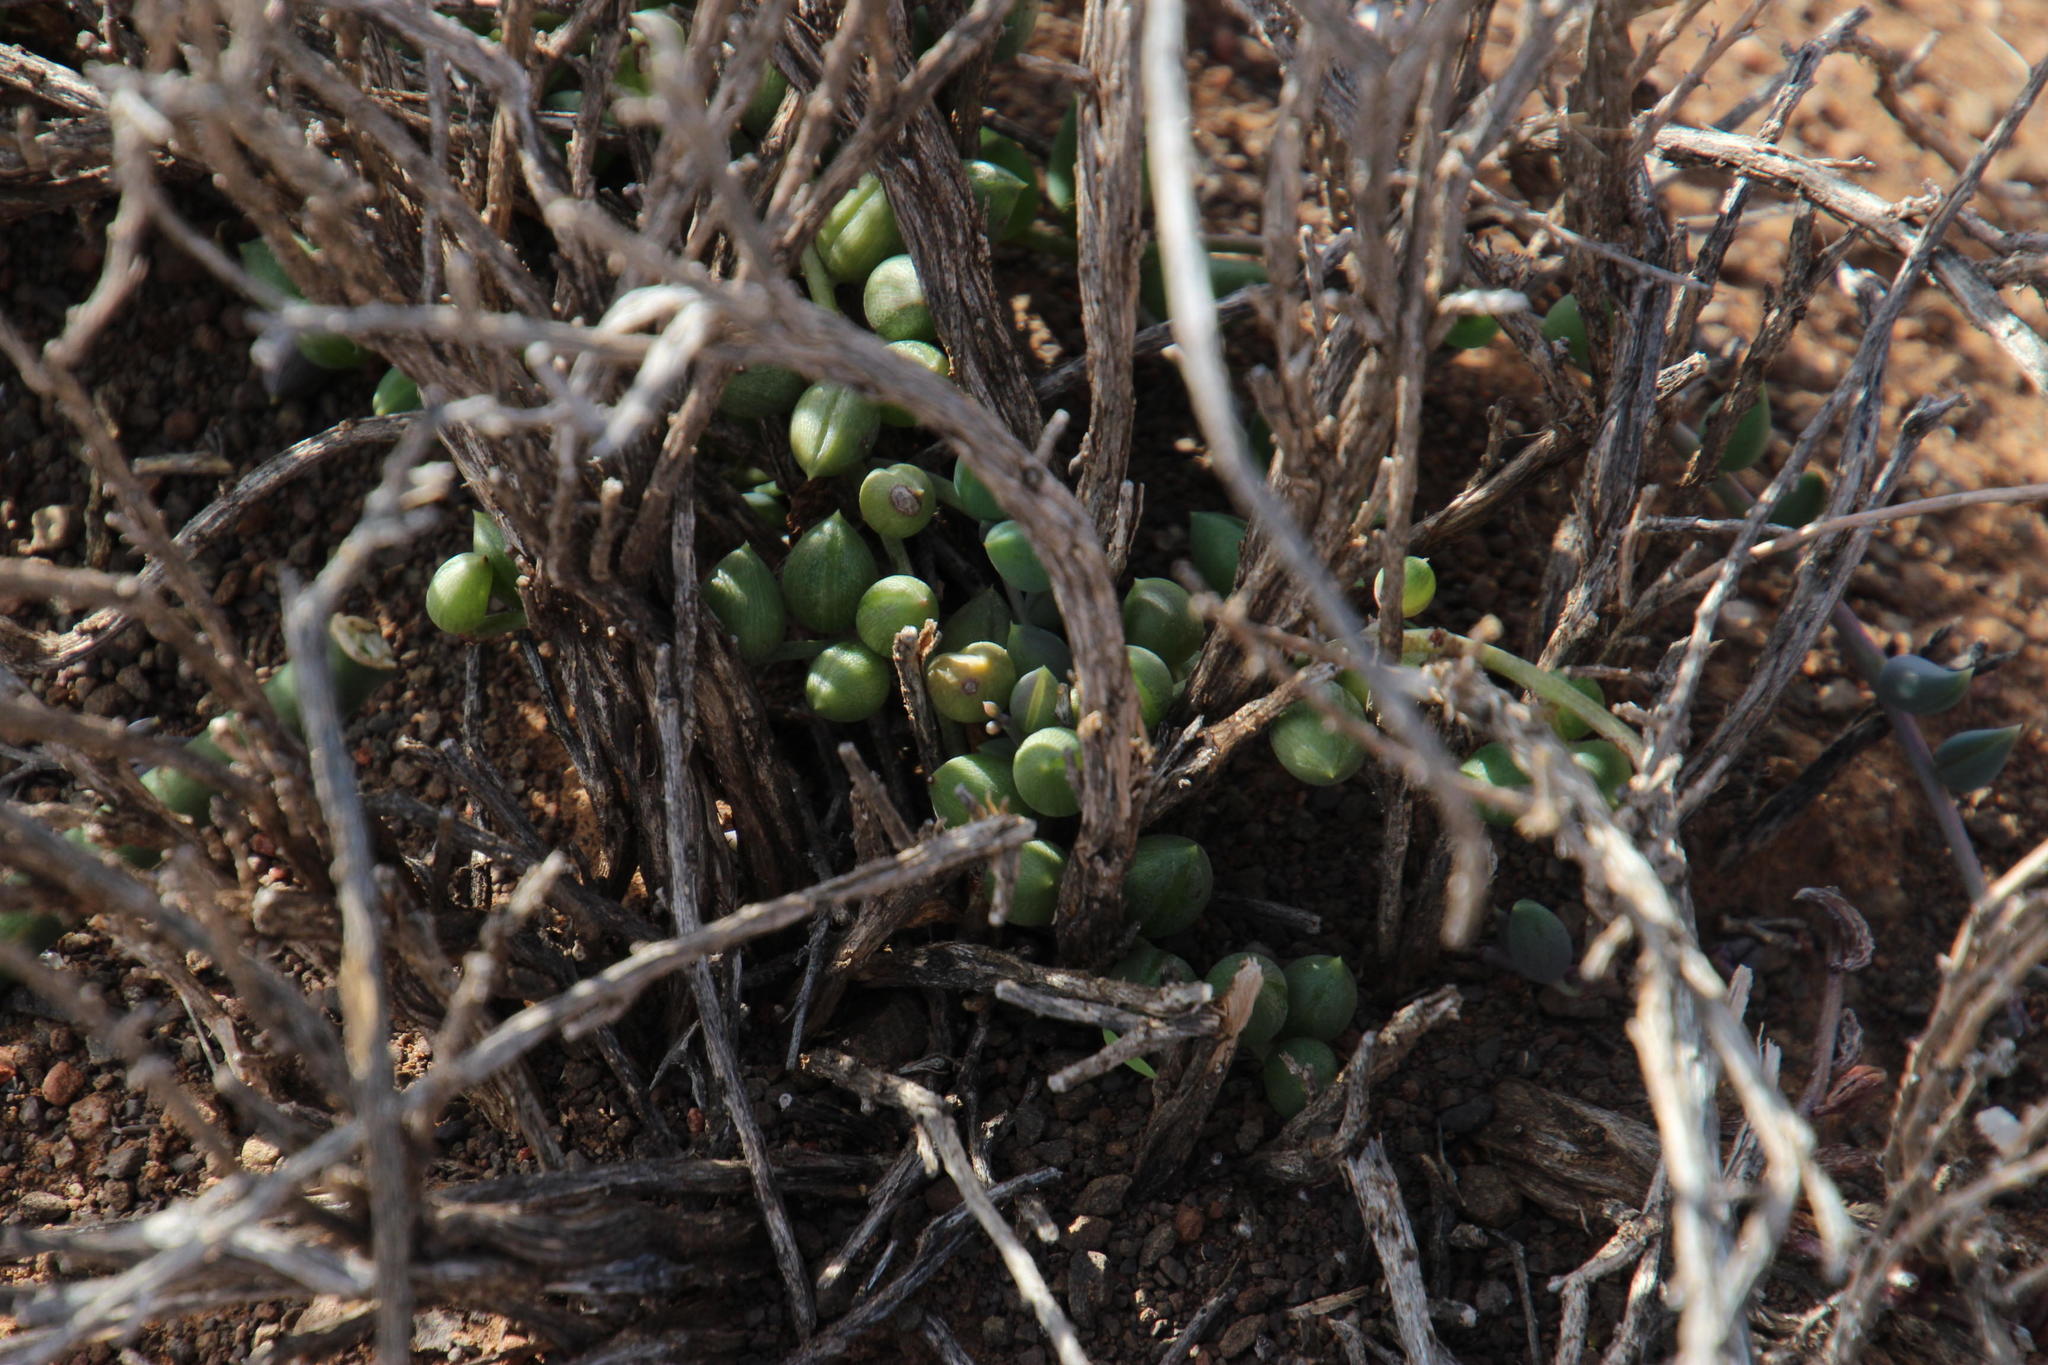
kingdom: Plantae
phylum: Tracheophyta
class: Magnoliopsida
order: Asterales
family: Asteraceae
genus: Curio
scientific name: Curio radicans
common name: Creeping-berry
